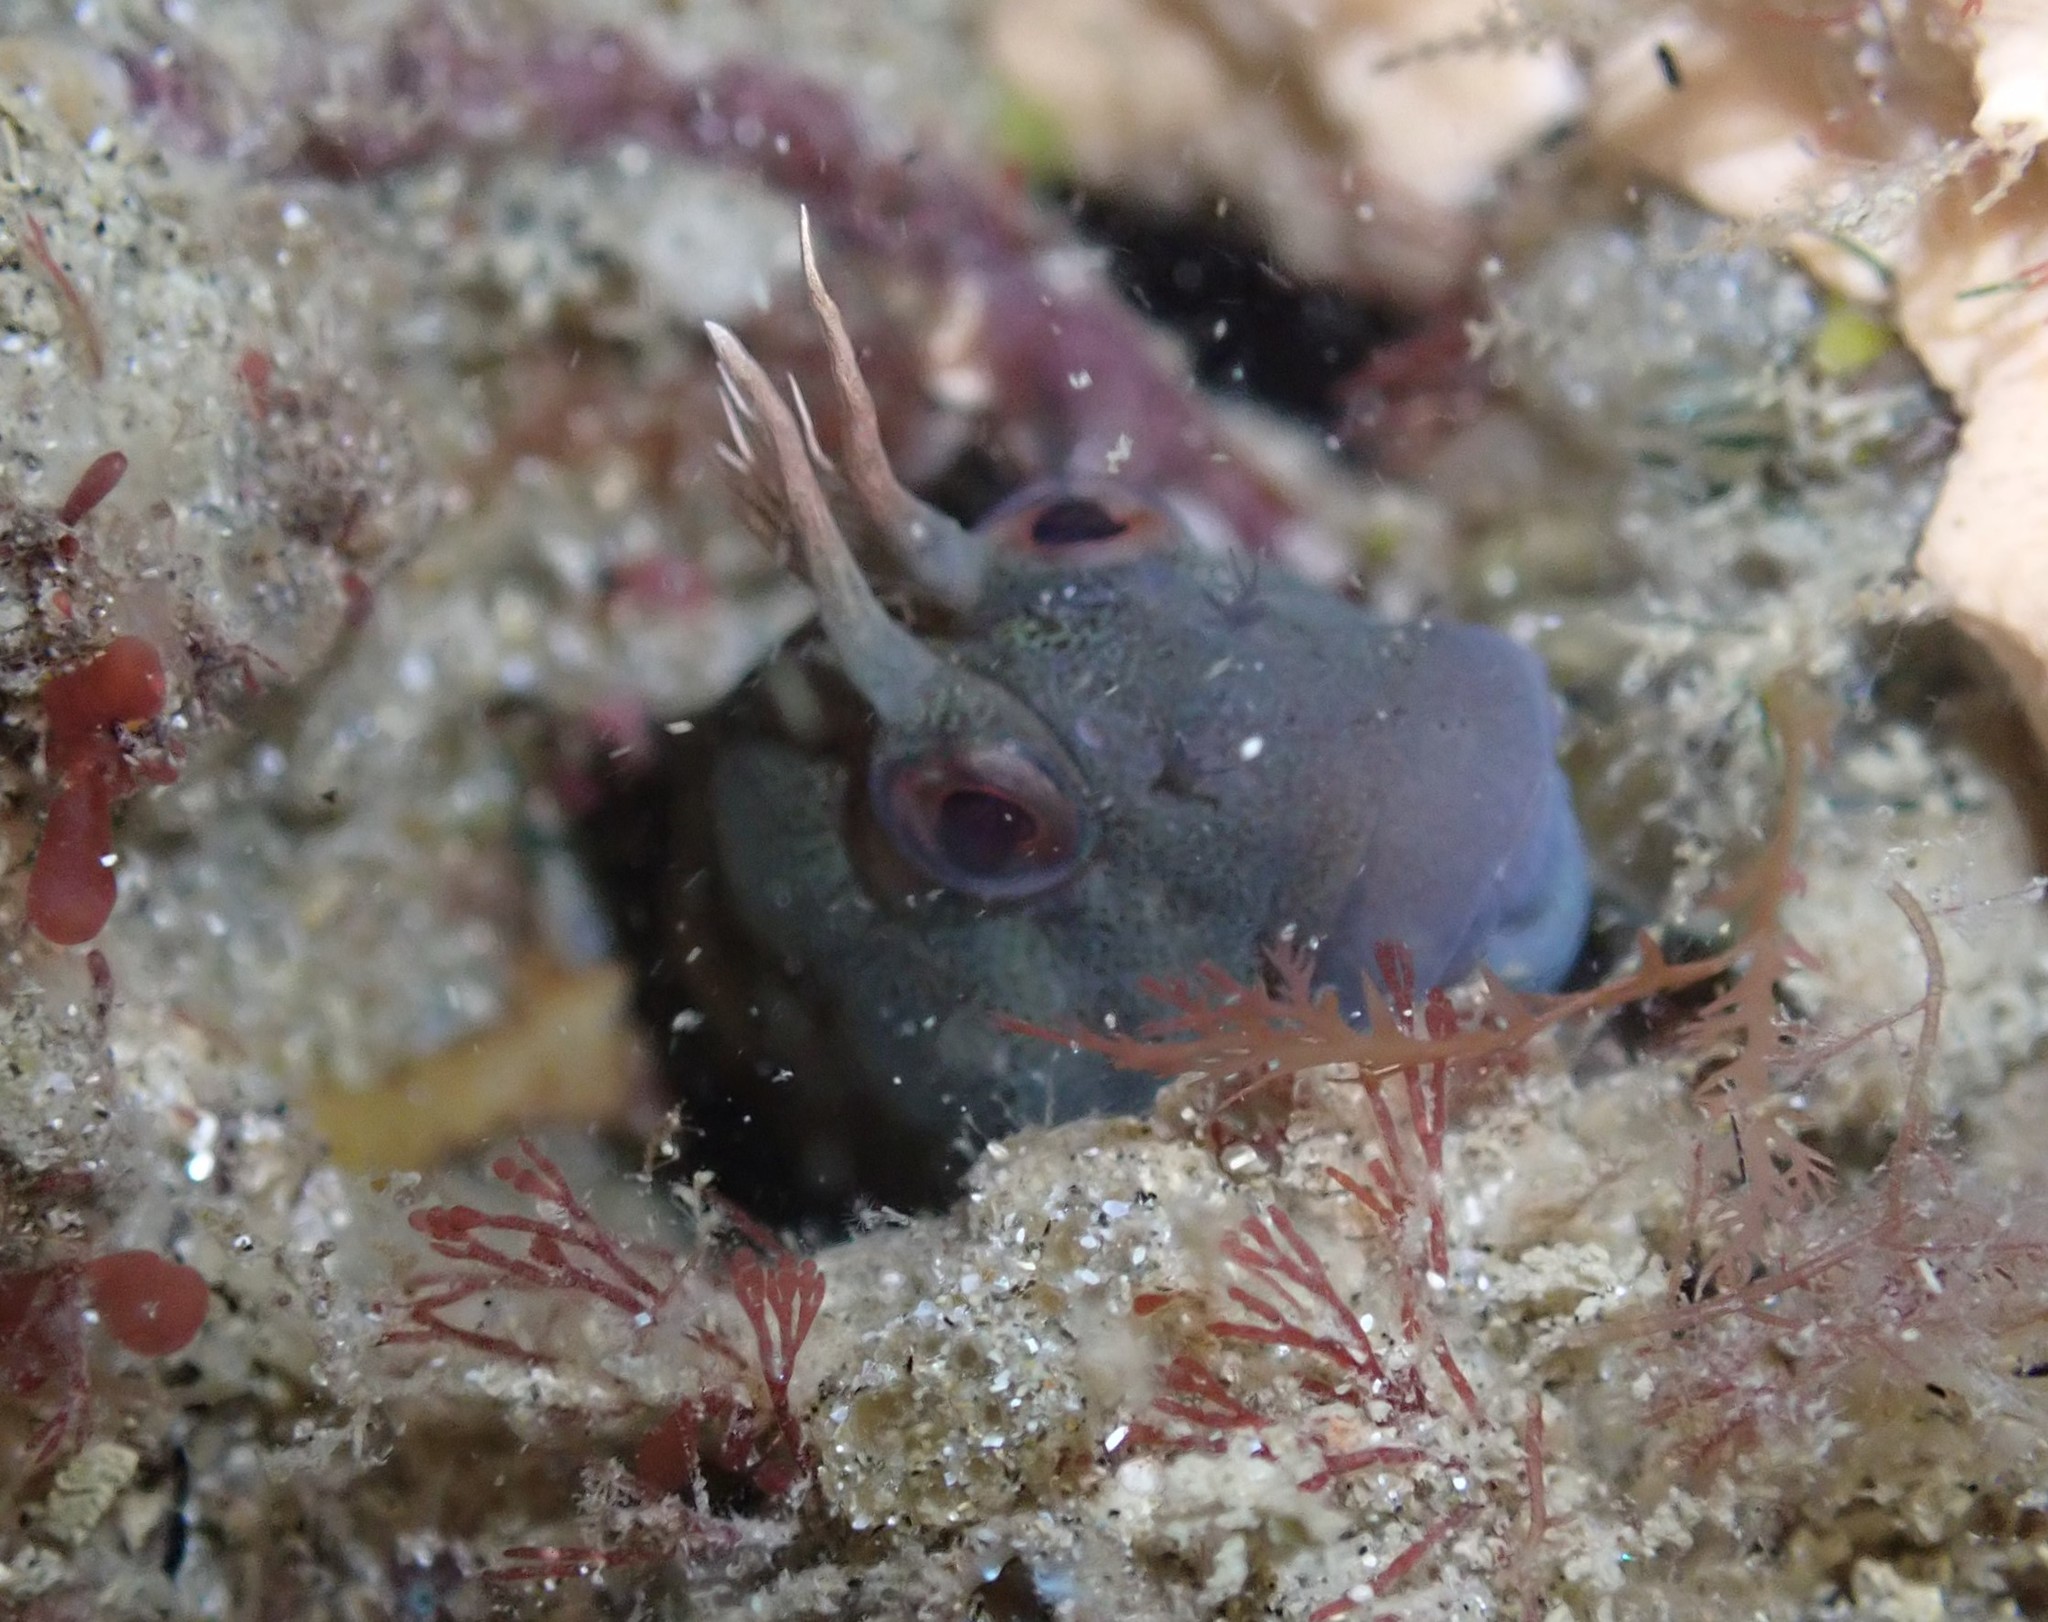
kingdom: Animalia
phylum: Chordata
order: Perciformes
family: Blenniidae
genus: Parablennius
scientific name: Parablennius tasmanianus
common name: Tasmanian blenny
